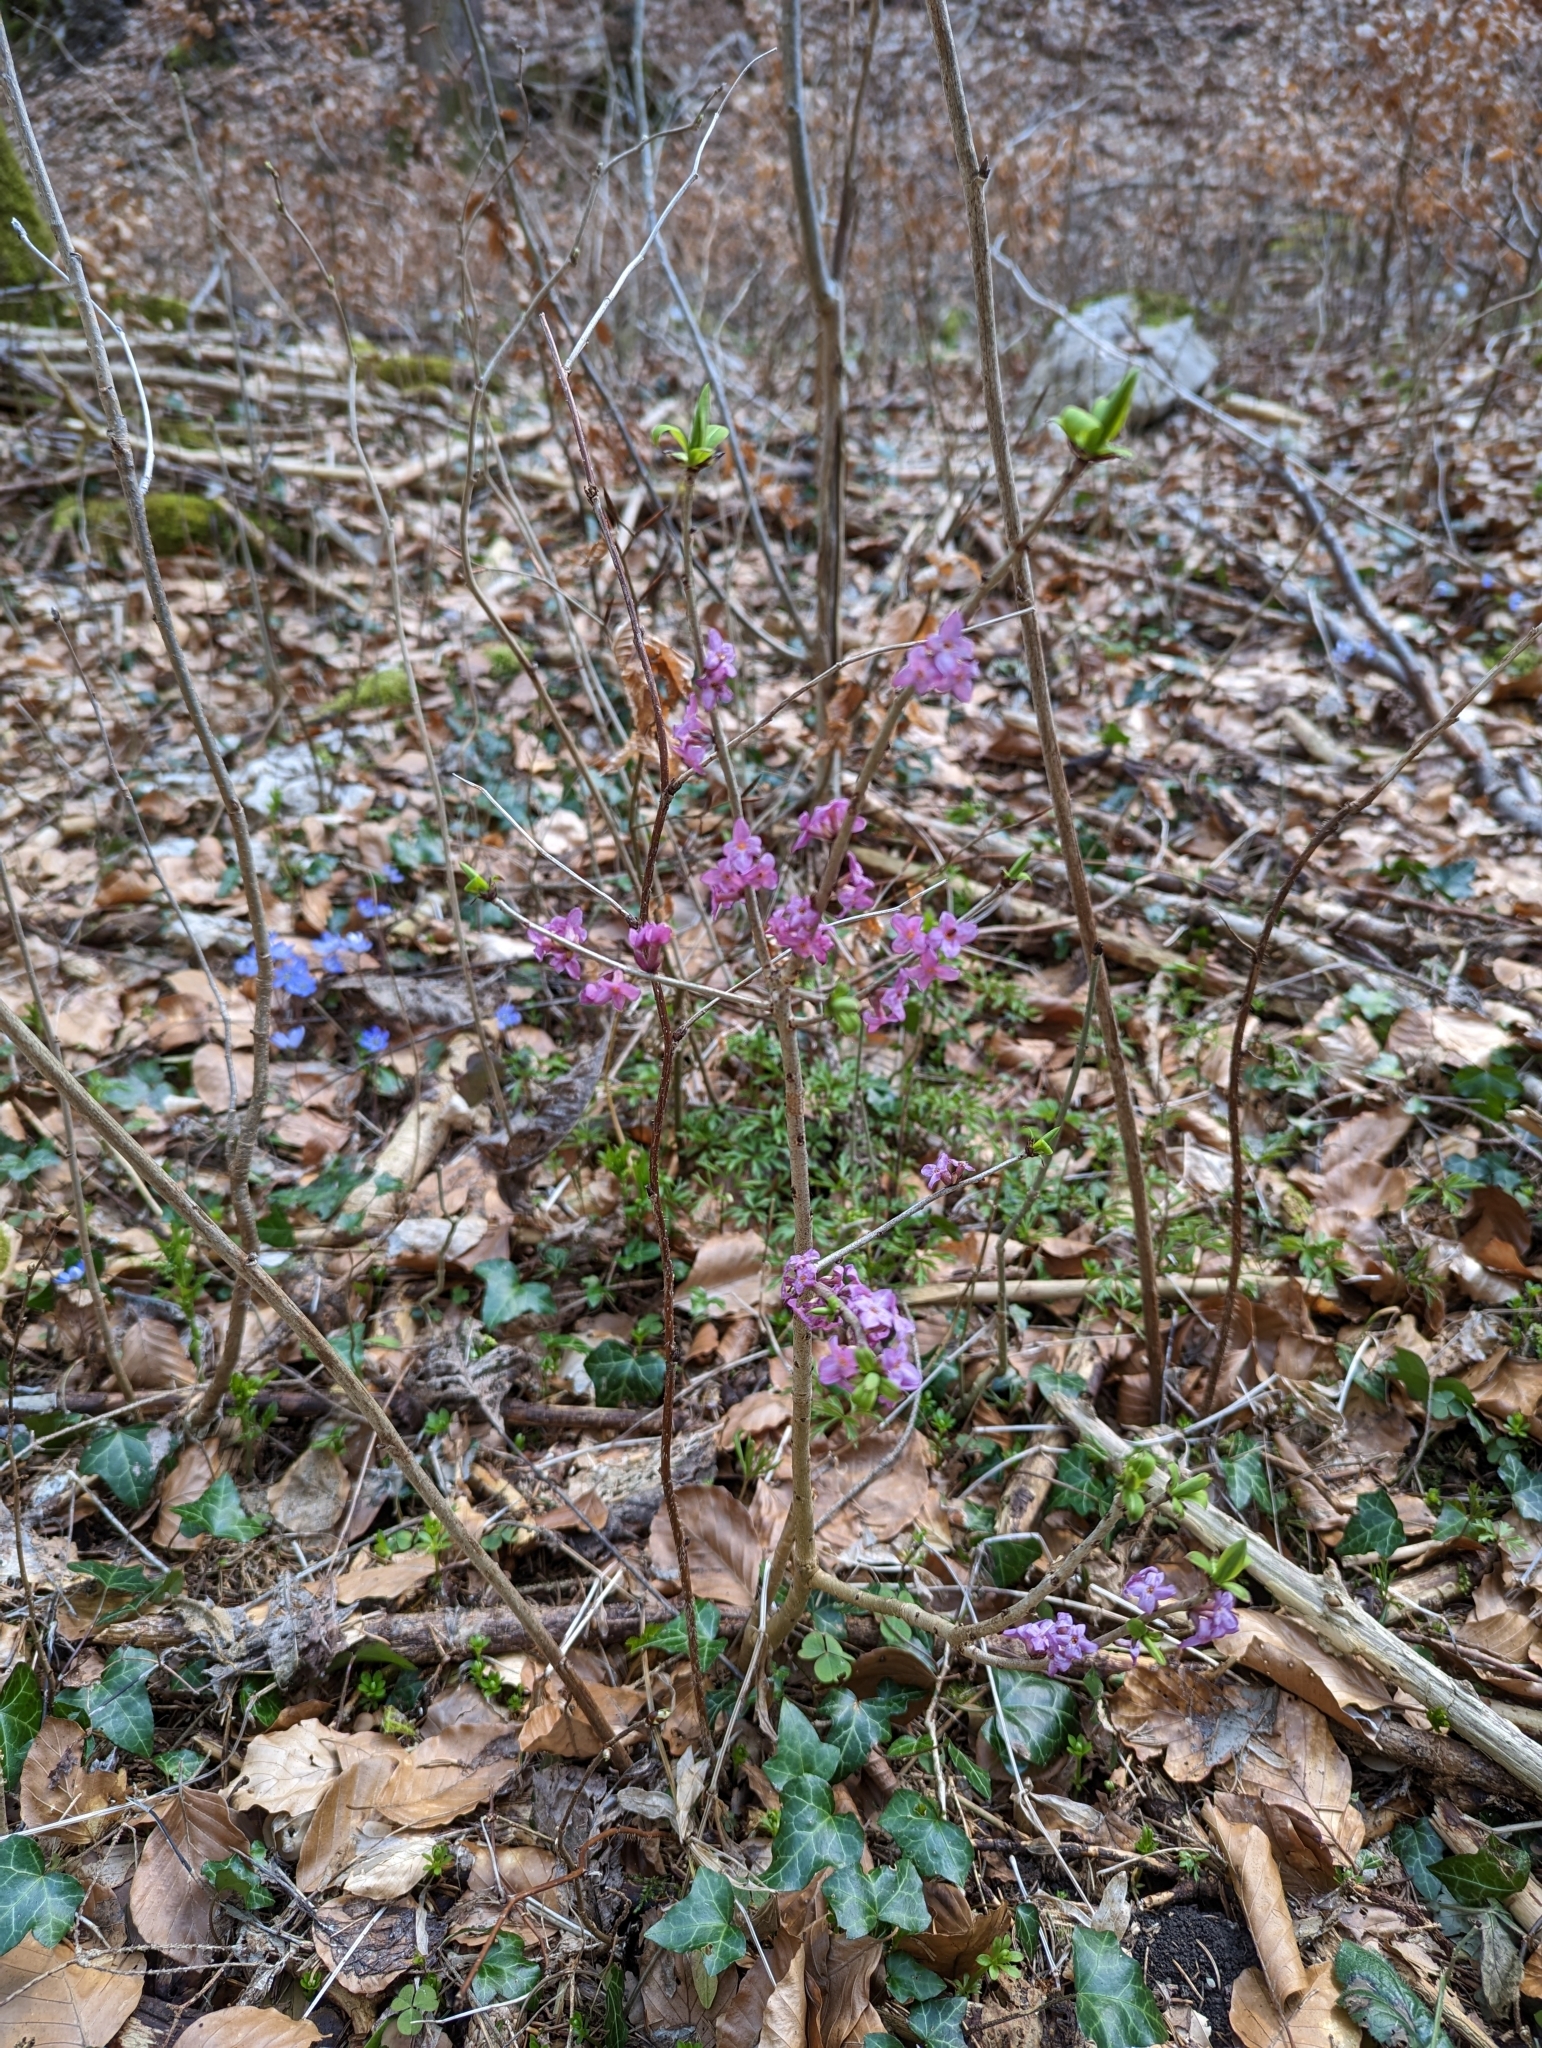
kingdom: Plantae
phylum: Tracheophyta
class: Magnoliopsida
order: Malvales
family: Thymelaeaceae
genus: Daphne
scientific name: Daphne mezereum
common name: Mezereon
